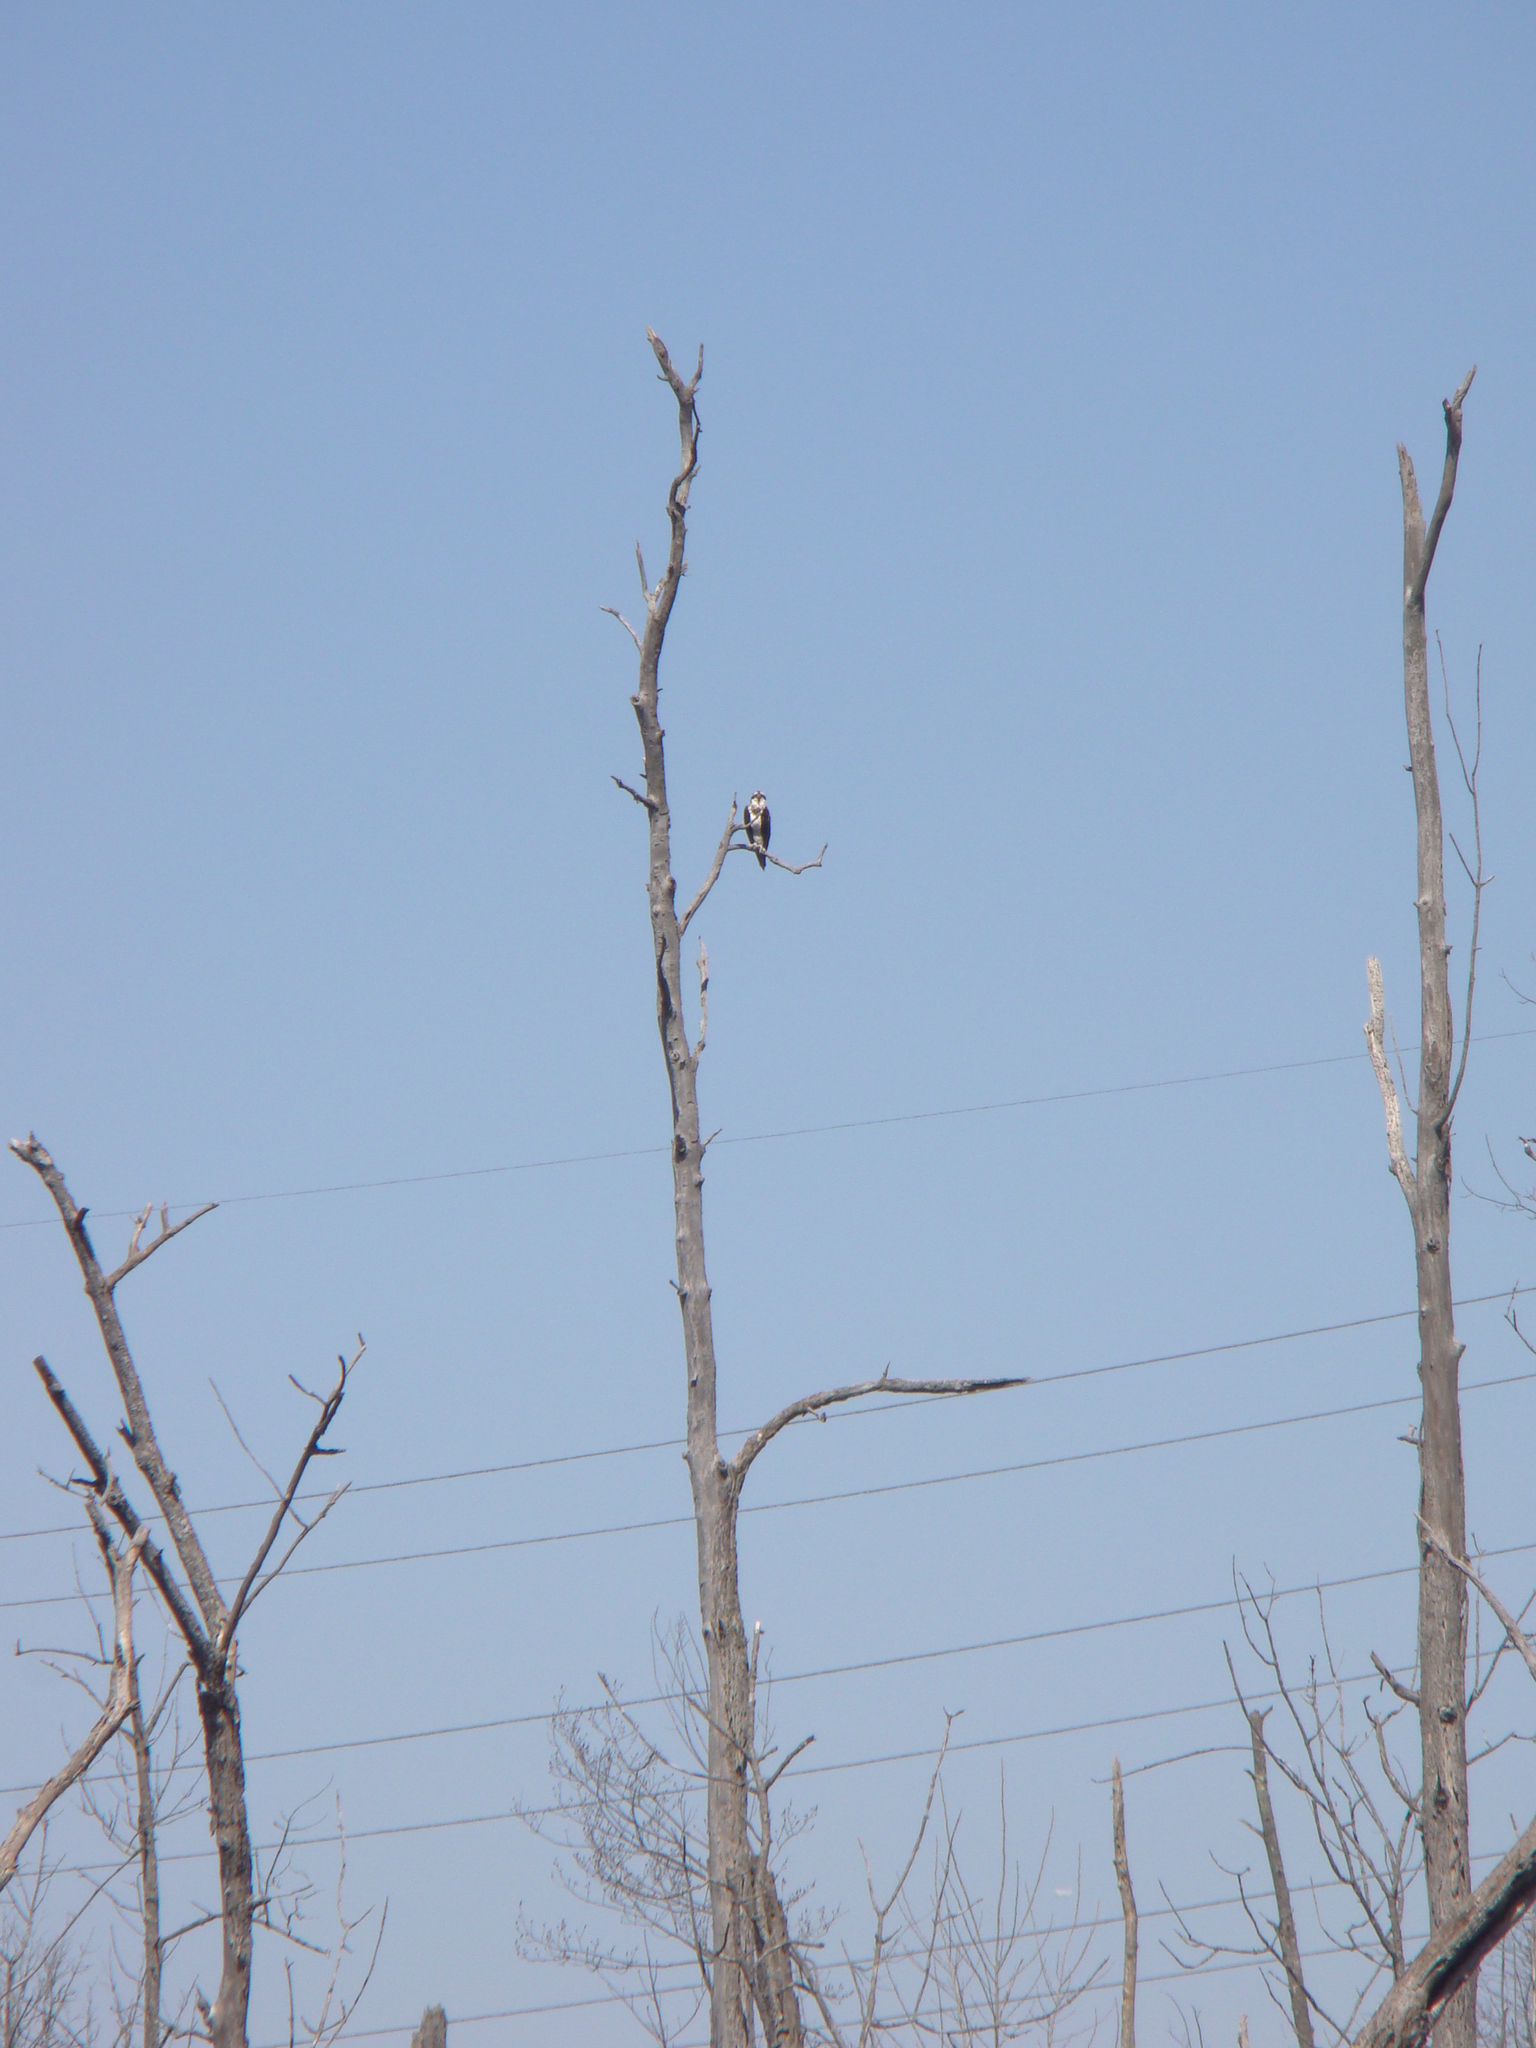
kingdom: Animalia
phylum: Chordata
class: Aves
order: Accipitriformes
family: Pandionidae
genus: Pandion
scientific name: Pandion haliaetus
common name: Osprey
